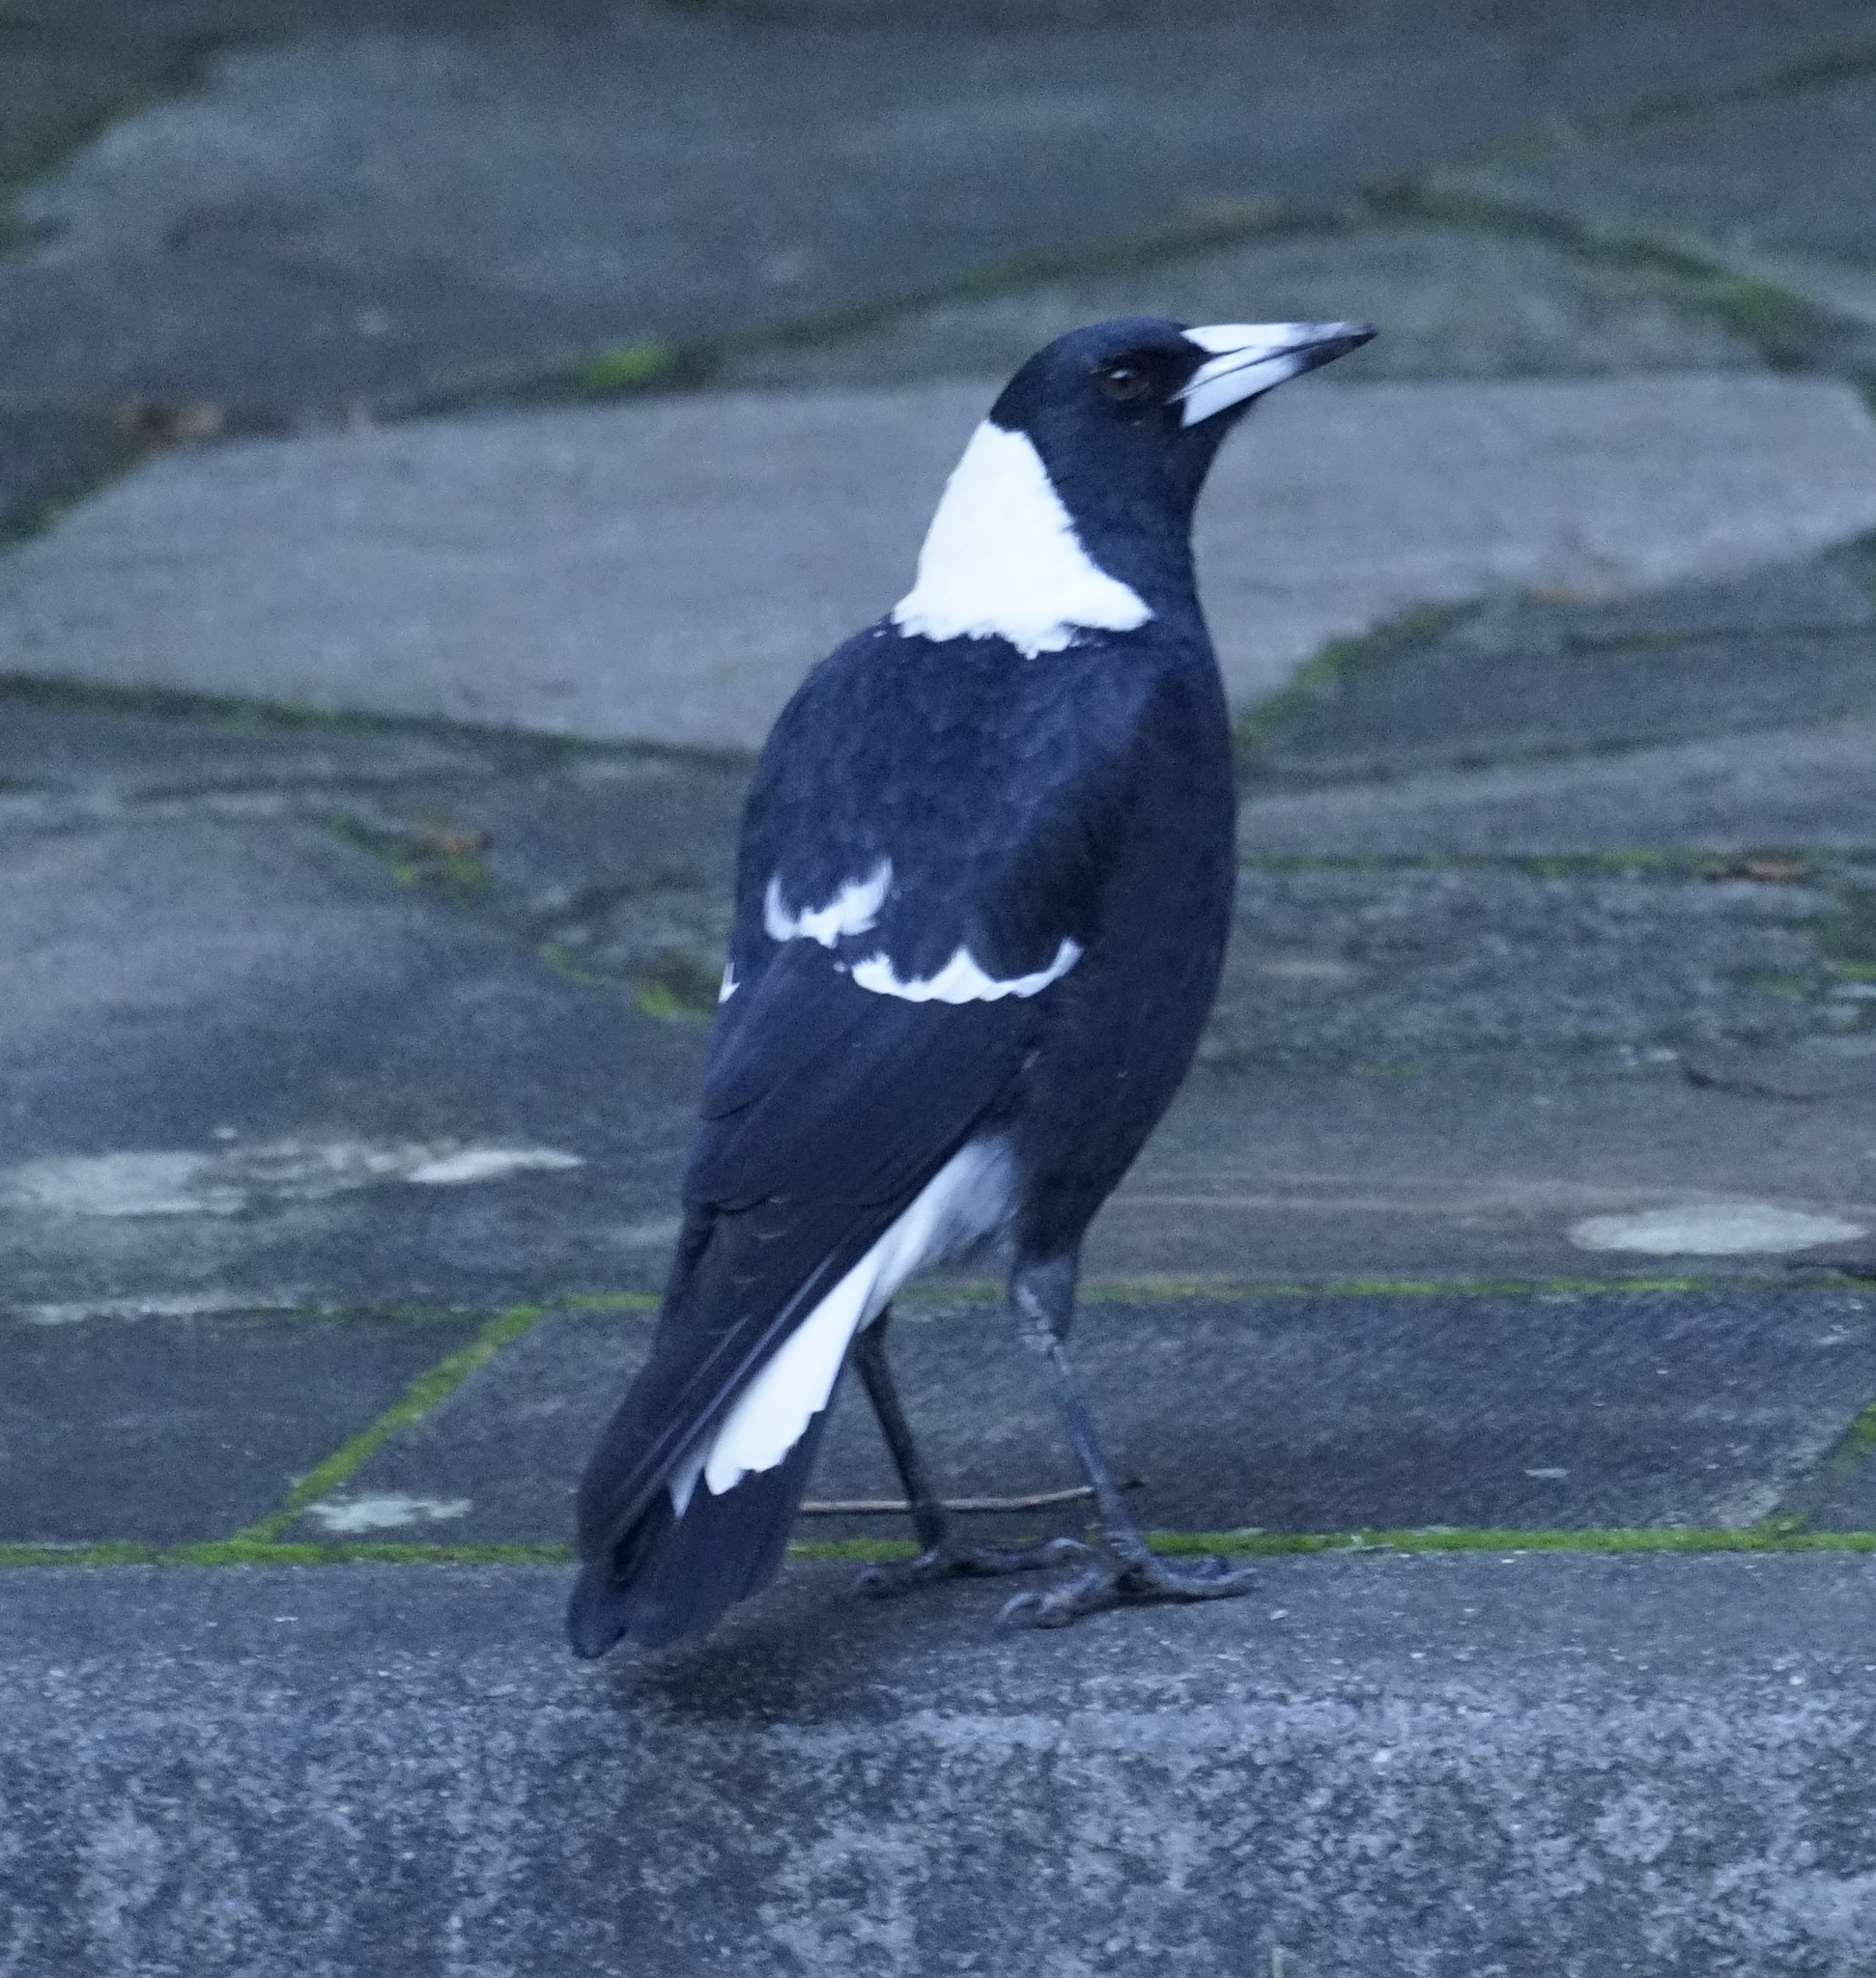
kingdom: Animalia
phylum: Chordata
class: Aves
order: Passeriformes
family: Cracticidae
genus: Gymnorhina
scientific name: Gymnorhina tibicen
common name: Australian magpie
